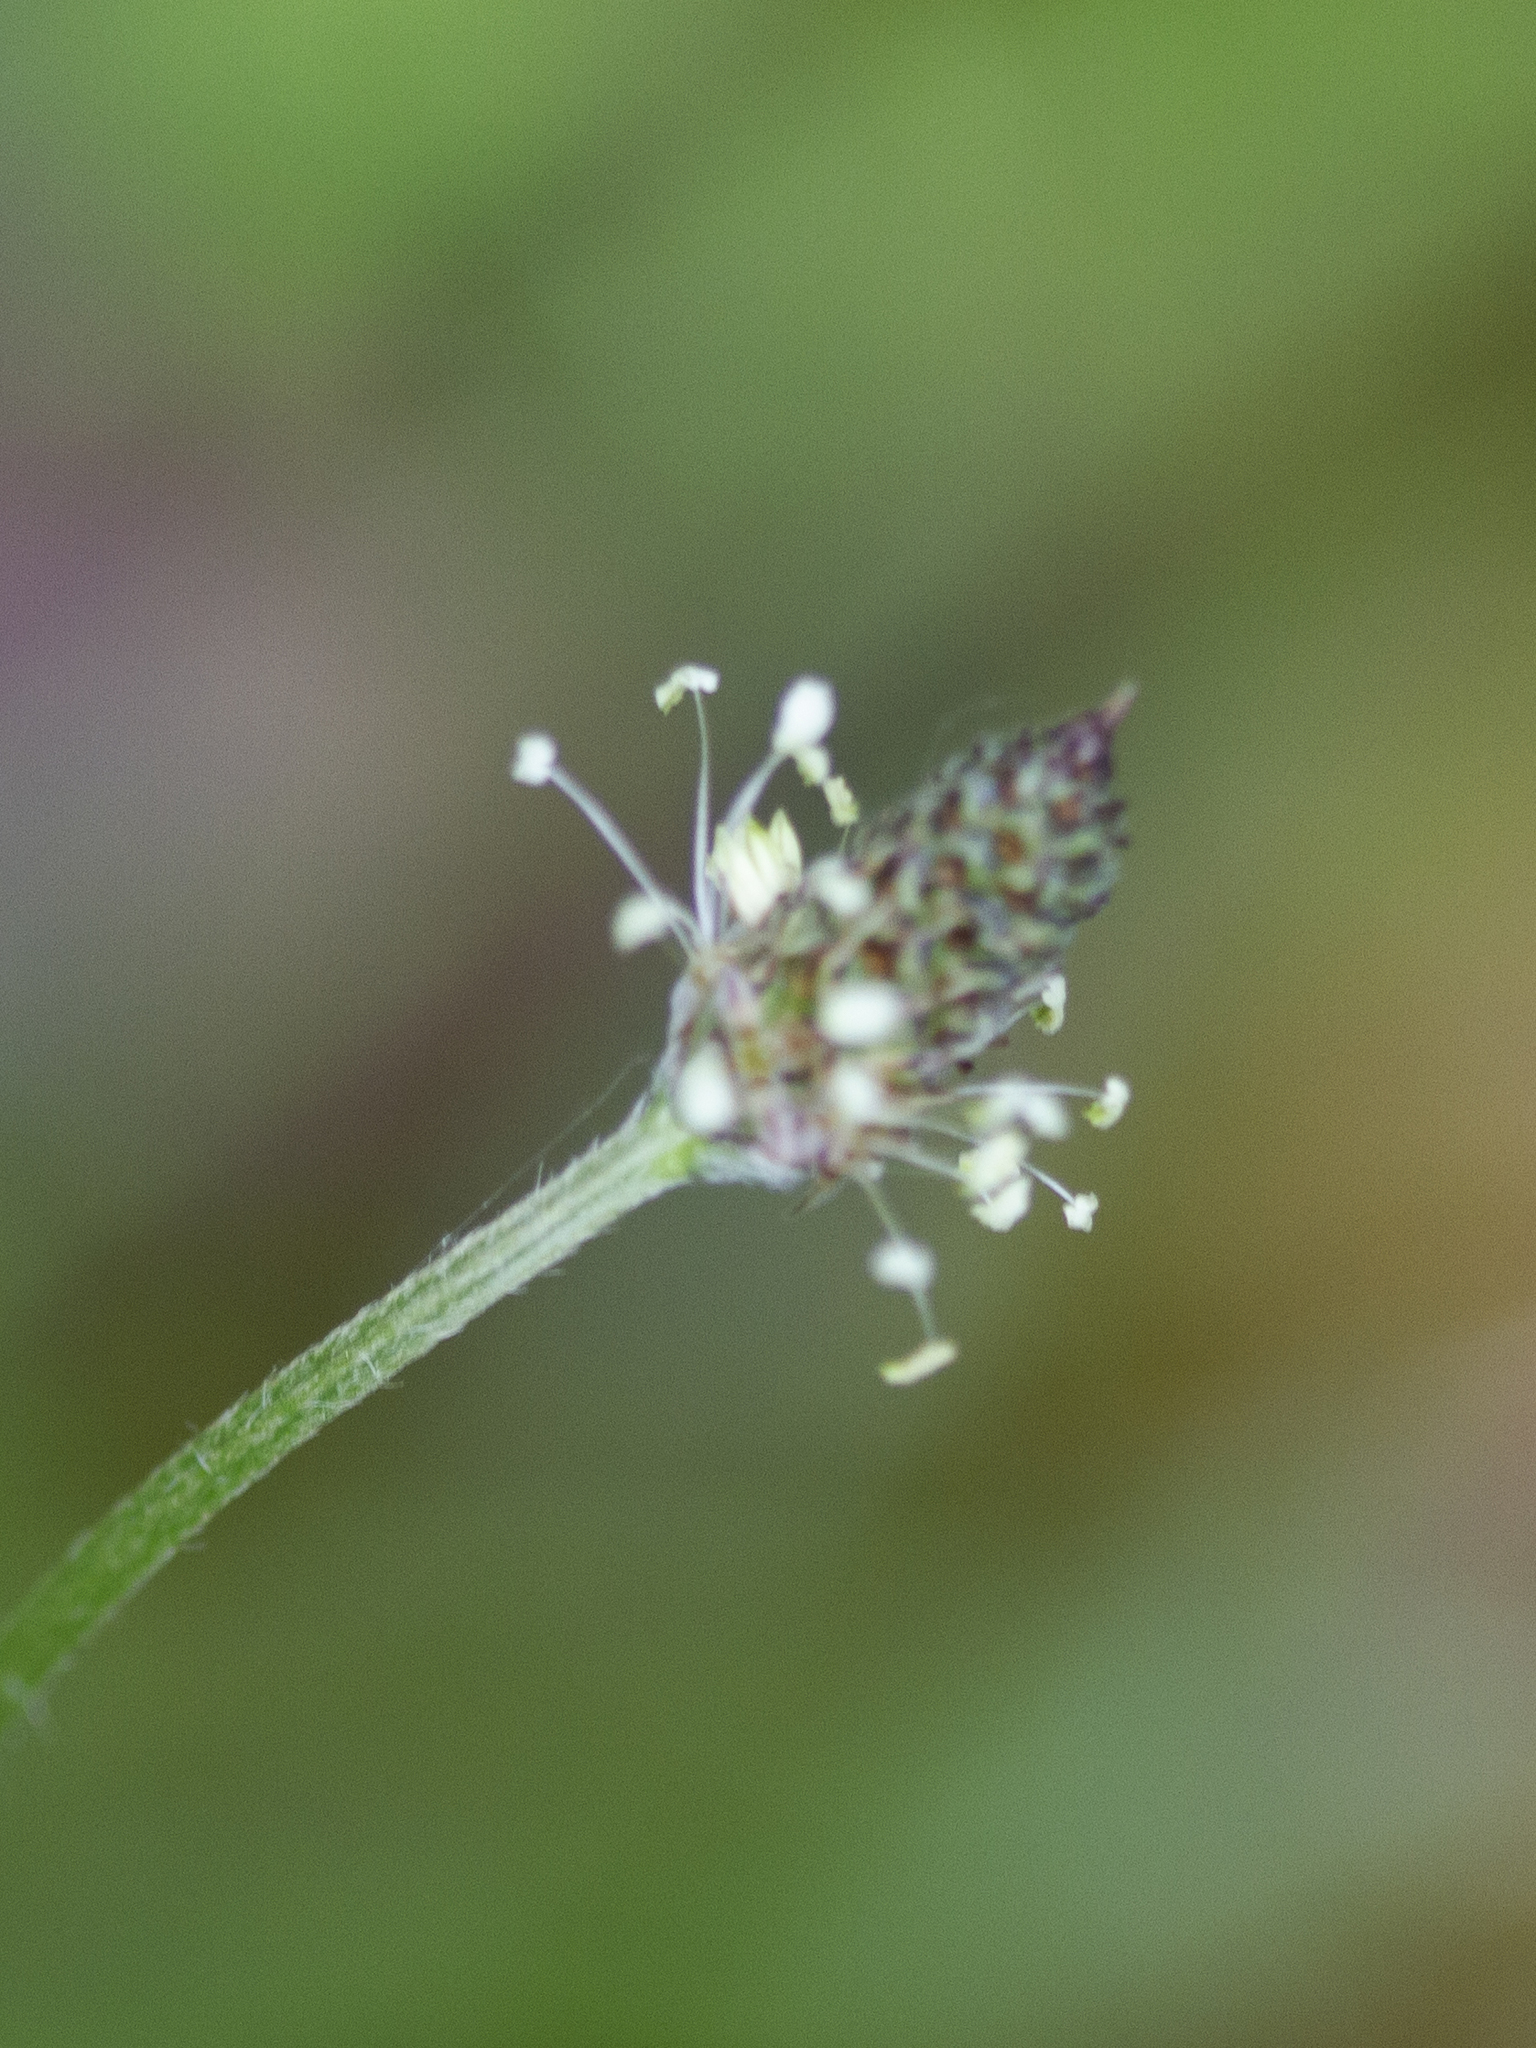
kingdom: Plantae
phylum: Tracheophyta
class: Magnoliopsida
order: Lamiales
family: Plantaginaceae
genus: Plantago
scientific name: Plantago lanceolata
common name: Ribwort plantain
